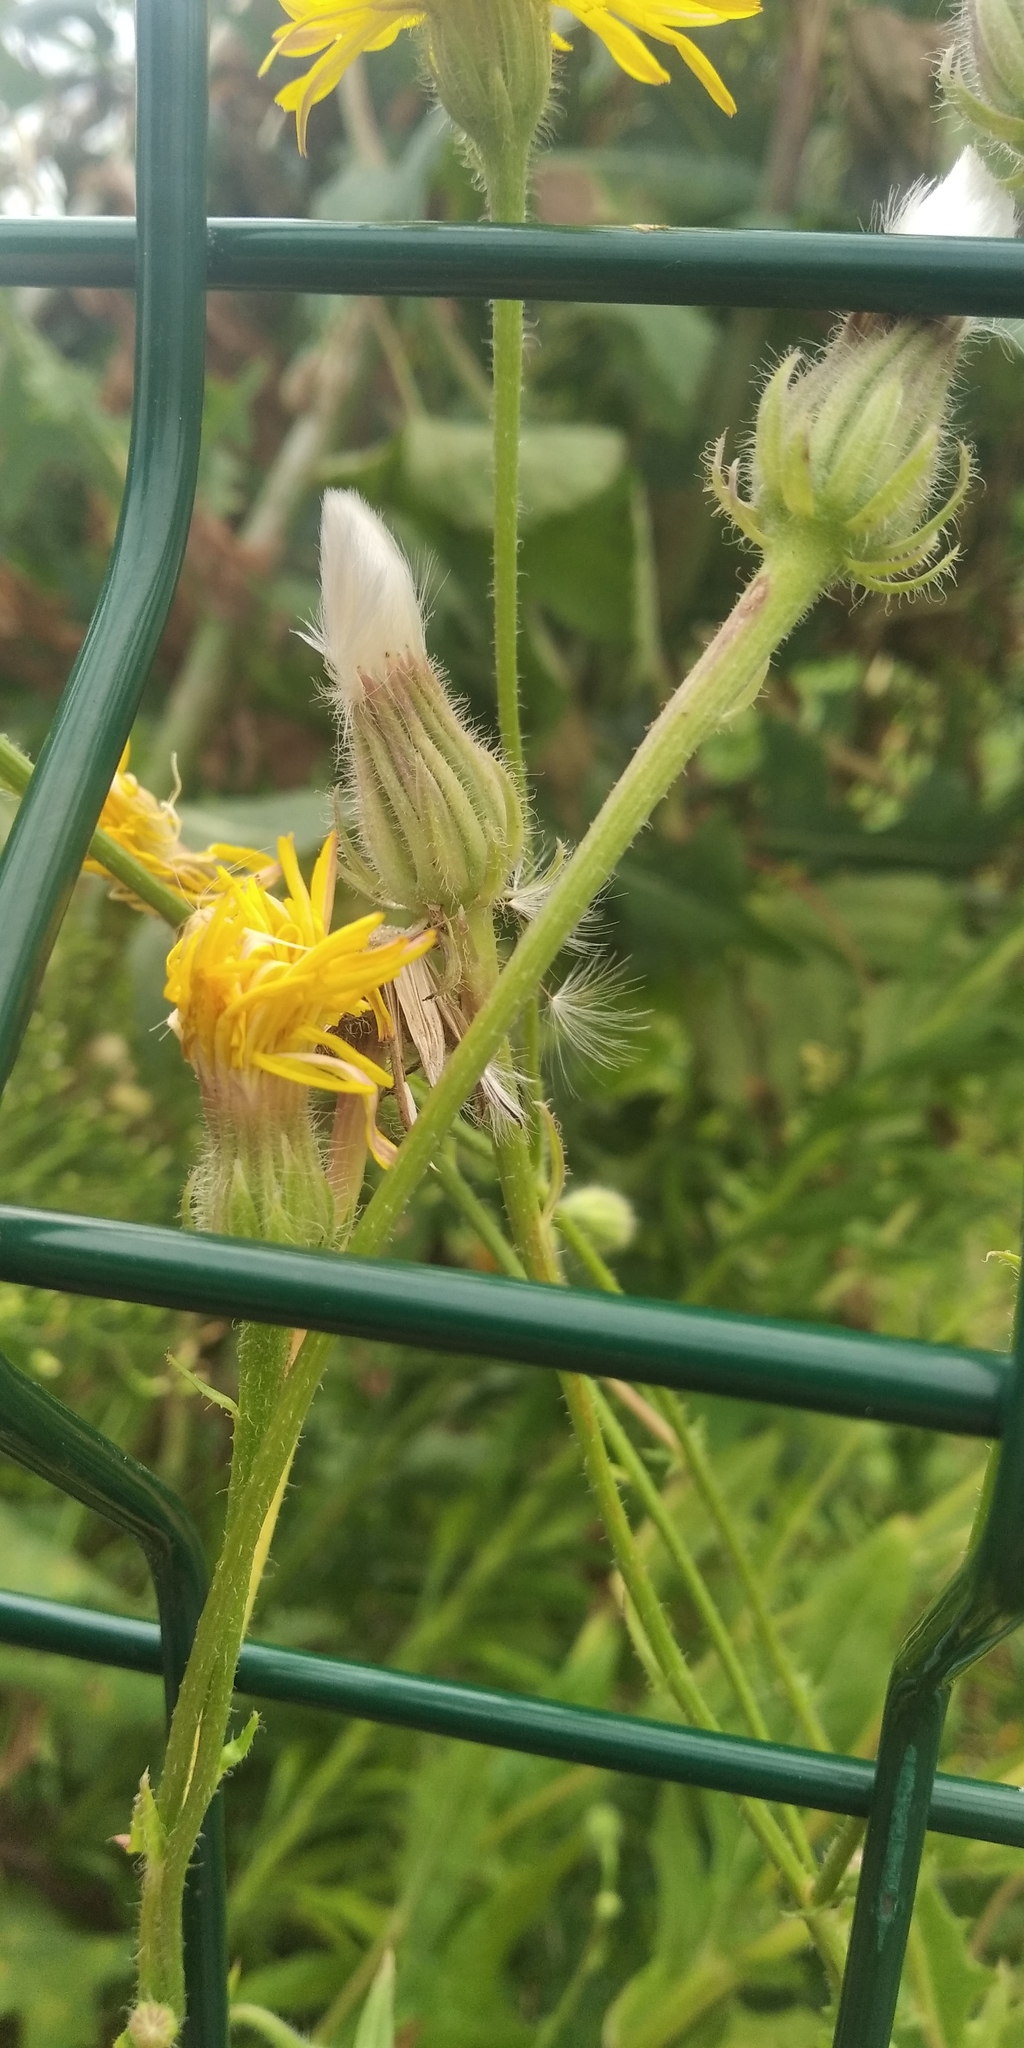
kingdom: Plantae
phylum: Tracheophyta
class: Magnoliopsida
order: Asterales
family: Asteraceae
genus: Crepis
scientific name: Crepis foetida
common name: Stinking hawk's-beard
